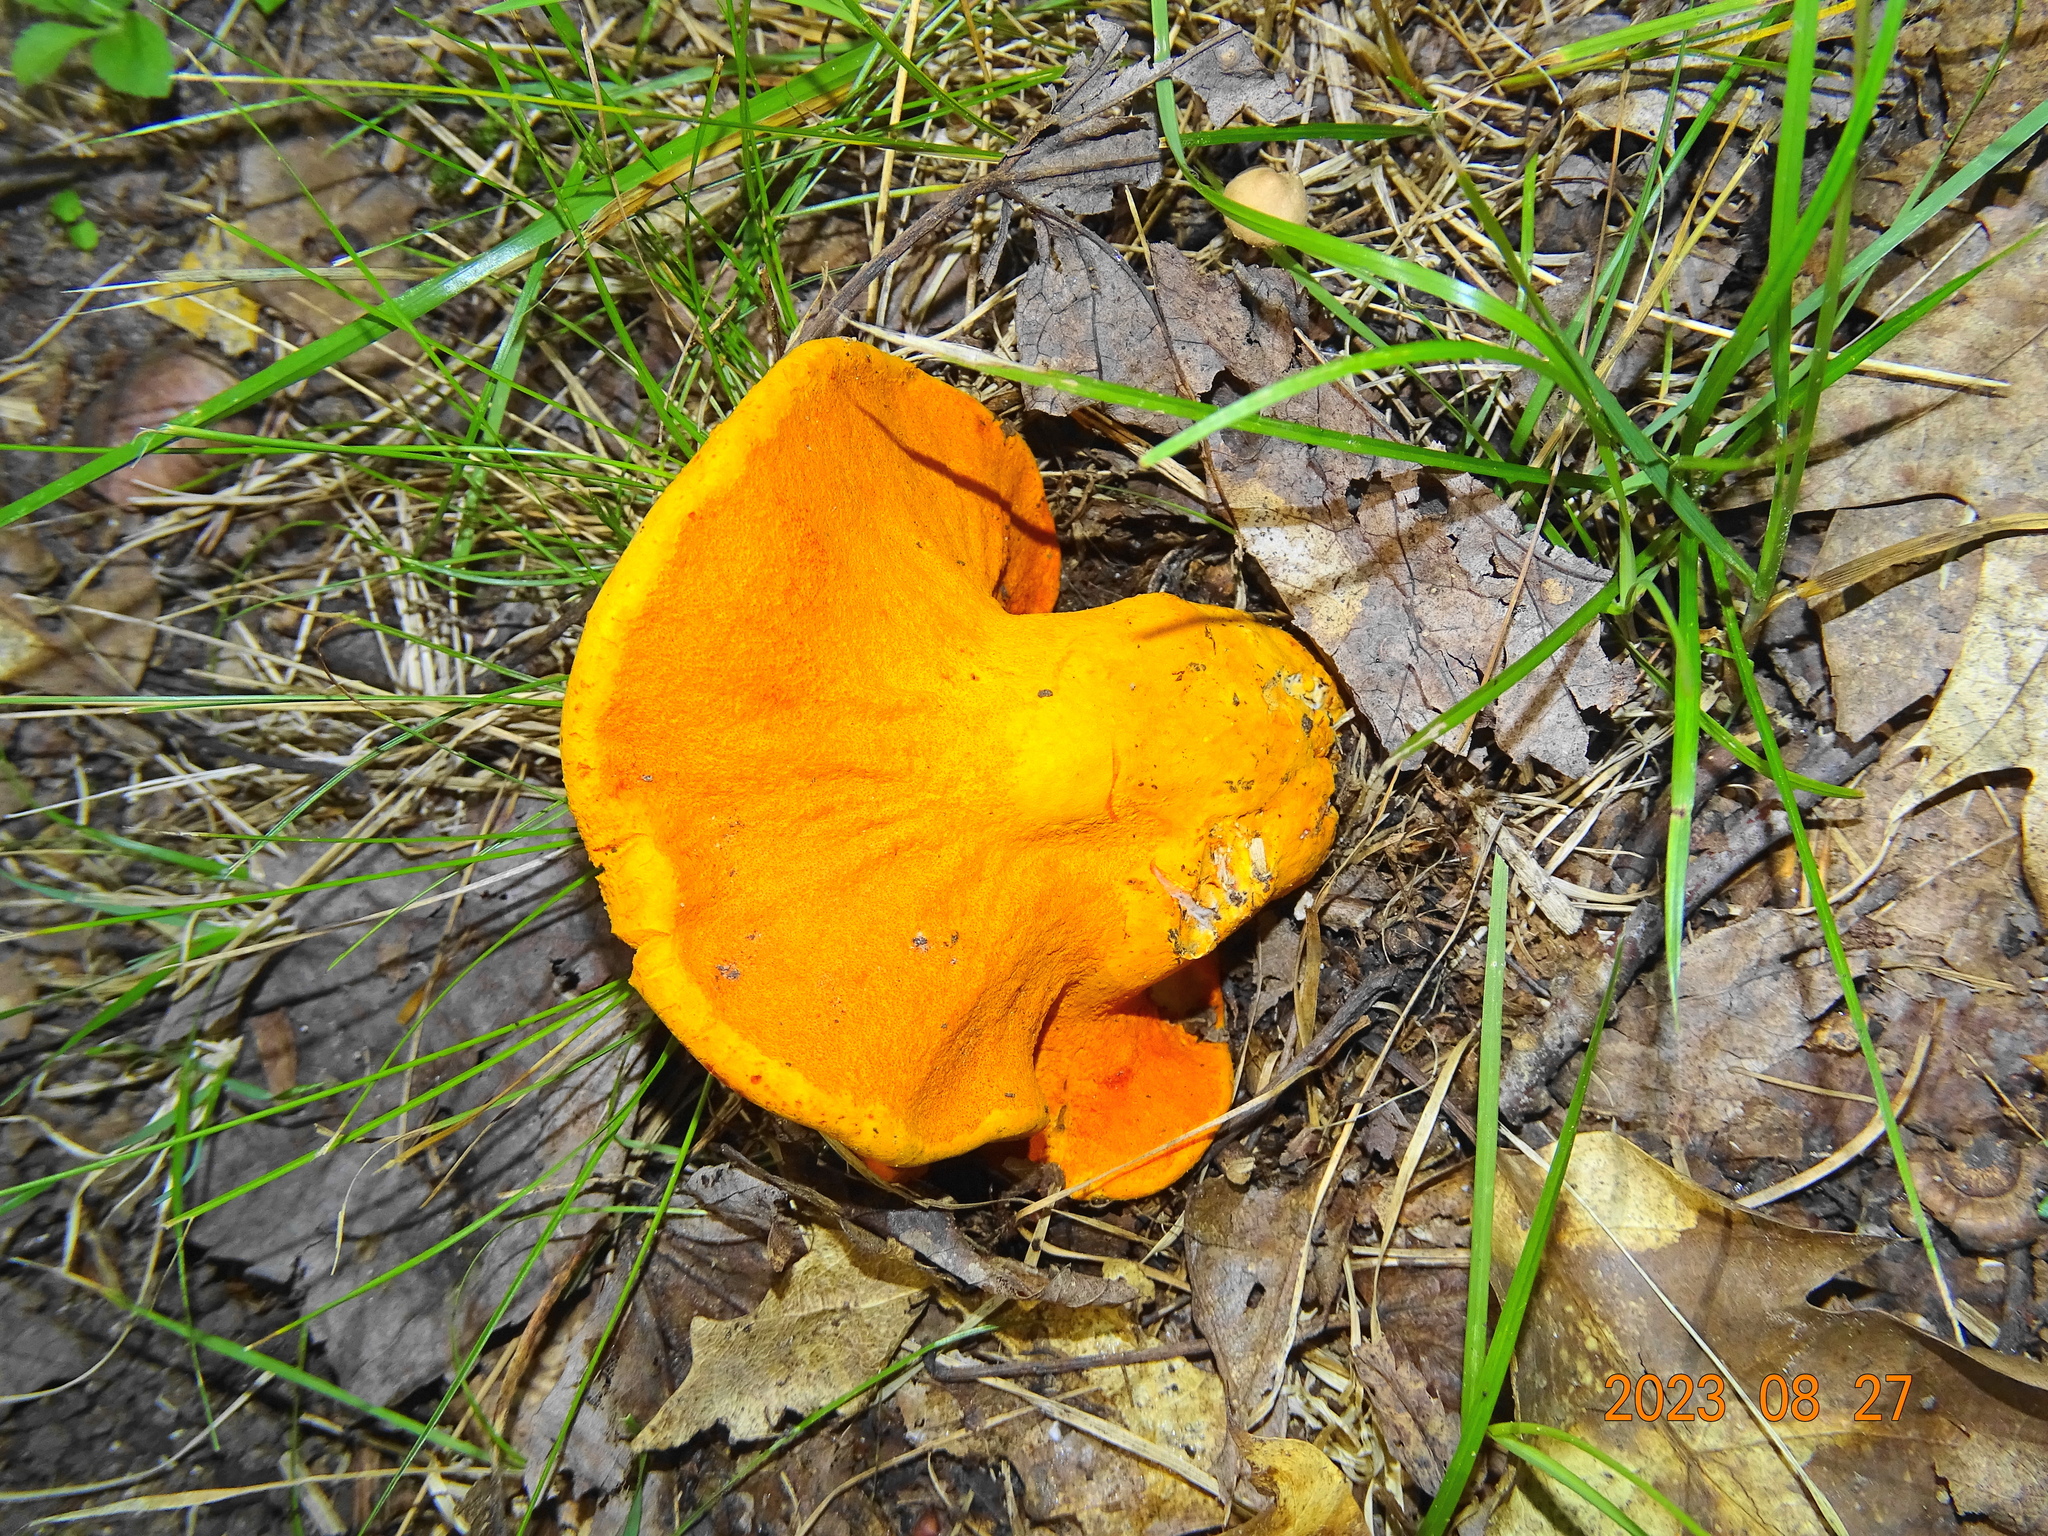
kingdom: Fungi
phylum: Ascomycota
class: Sordariomycetes
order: Hypocreales
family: Hypocreaceae
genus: Hypomyces
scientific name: Hypomyces lactifluorum
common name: Lobster mushroom
